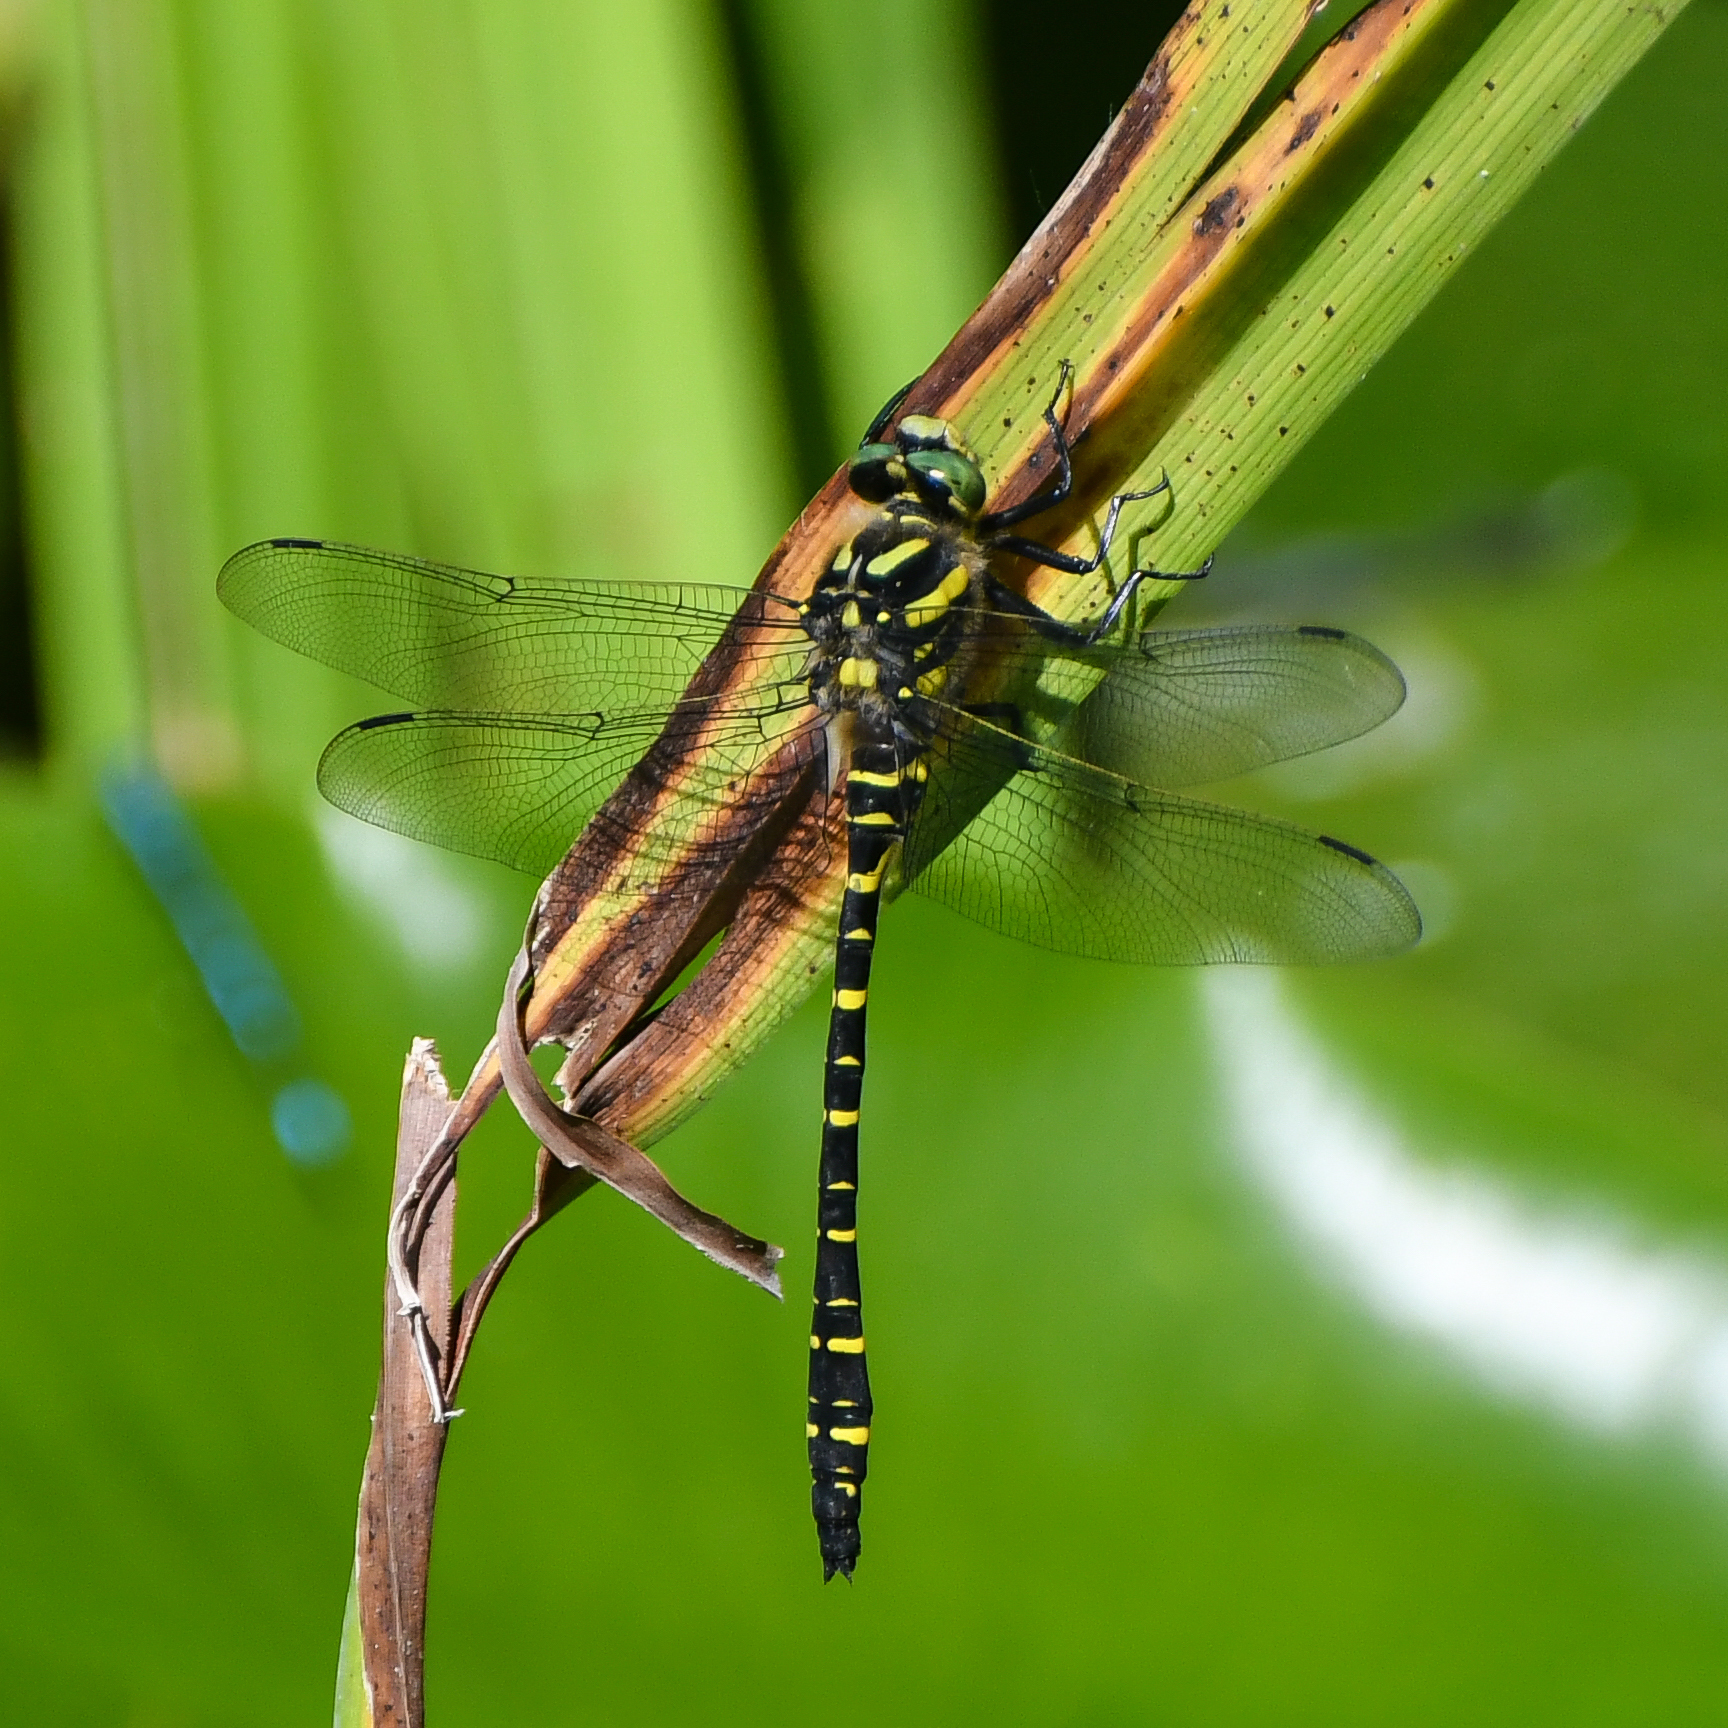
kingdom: Animalia
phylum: Arthropoda
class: Insecta
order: Odonata
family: Cordulegastridae
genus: Cordulegaster
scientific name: Cordulegaster boltonii
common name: Golden-ringed dragonfly
